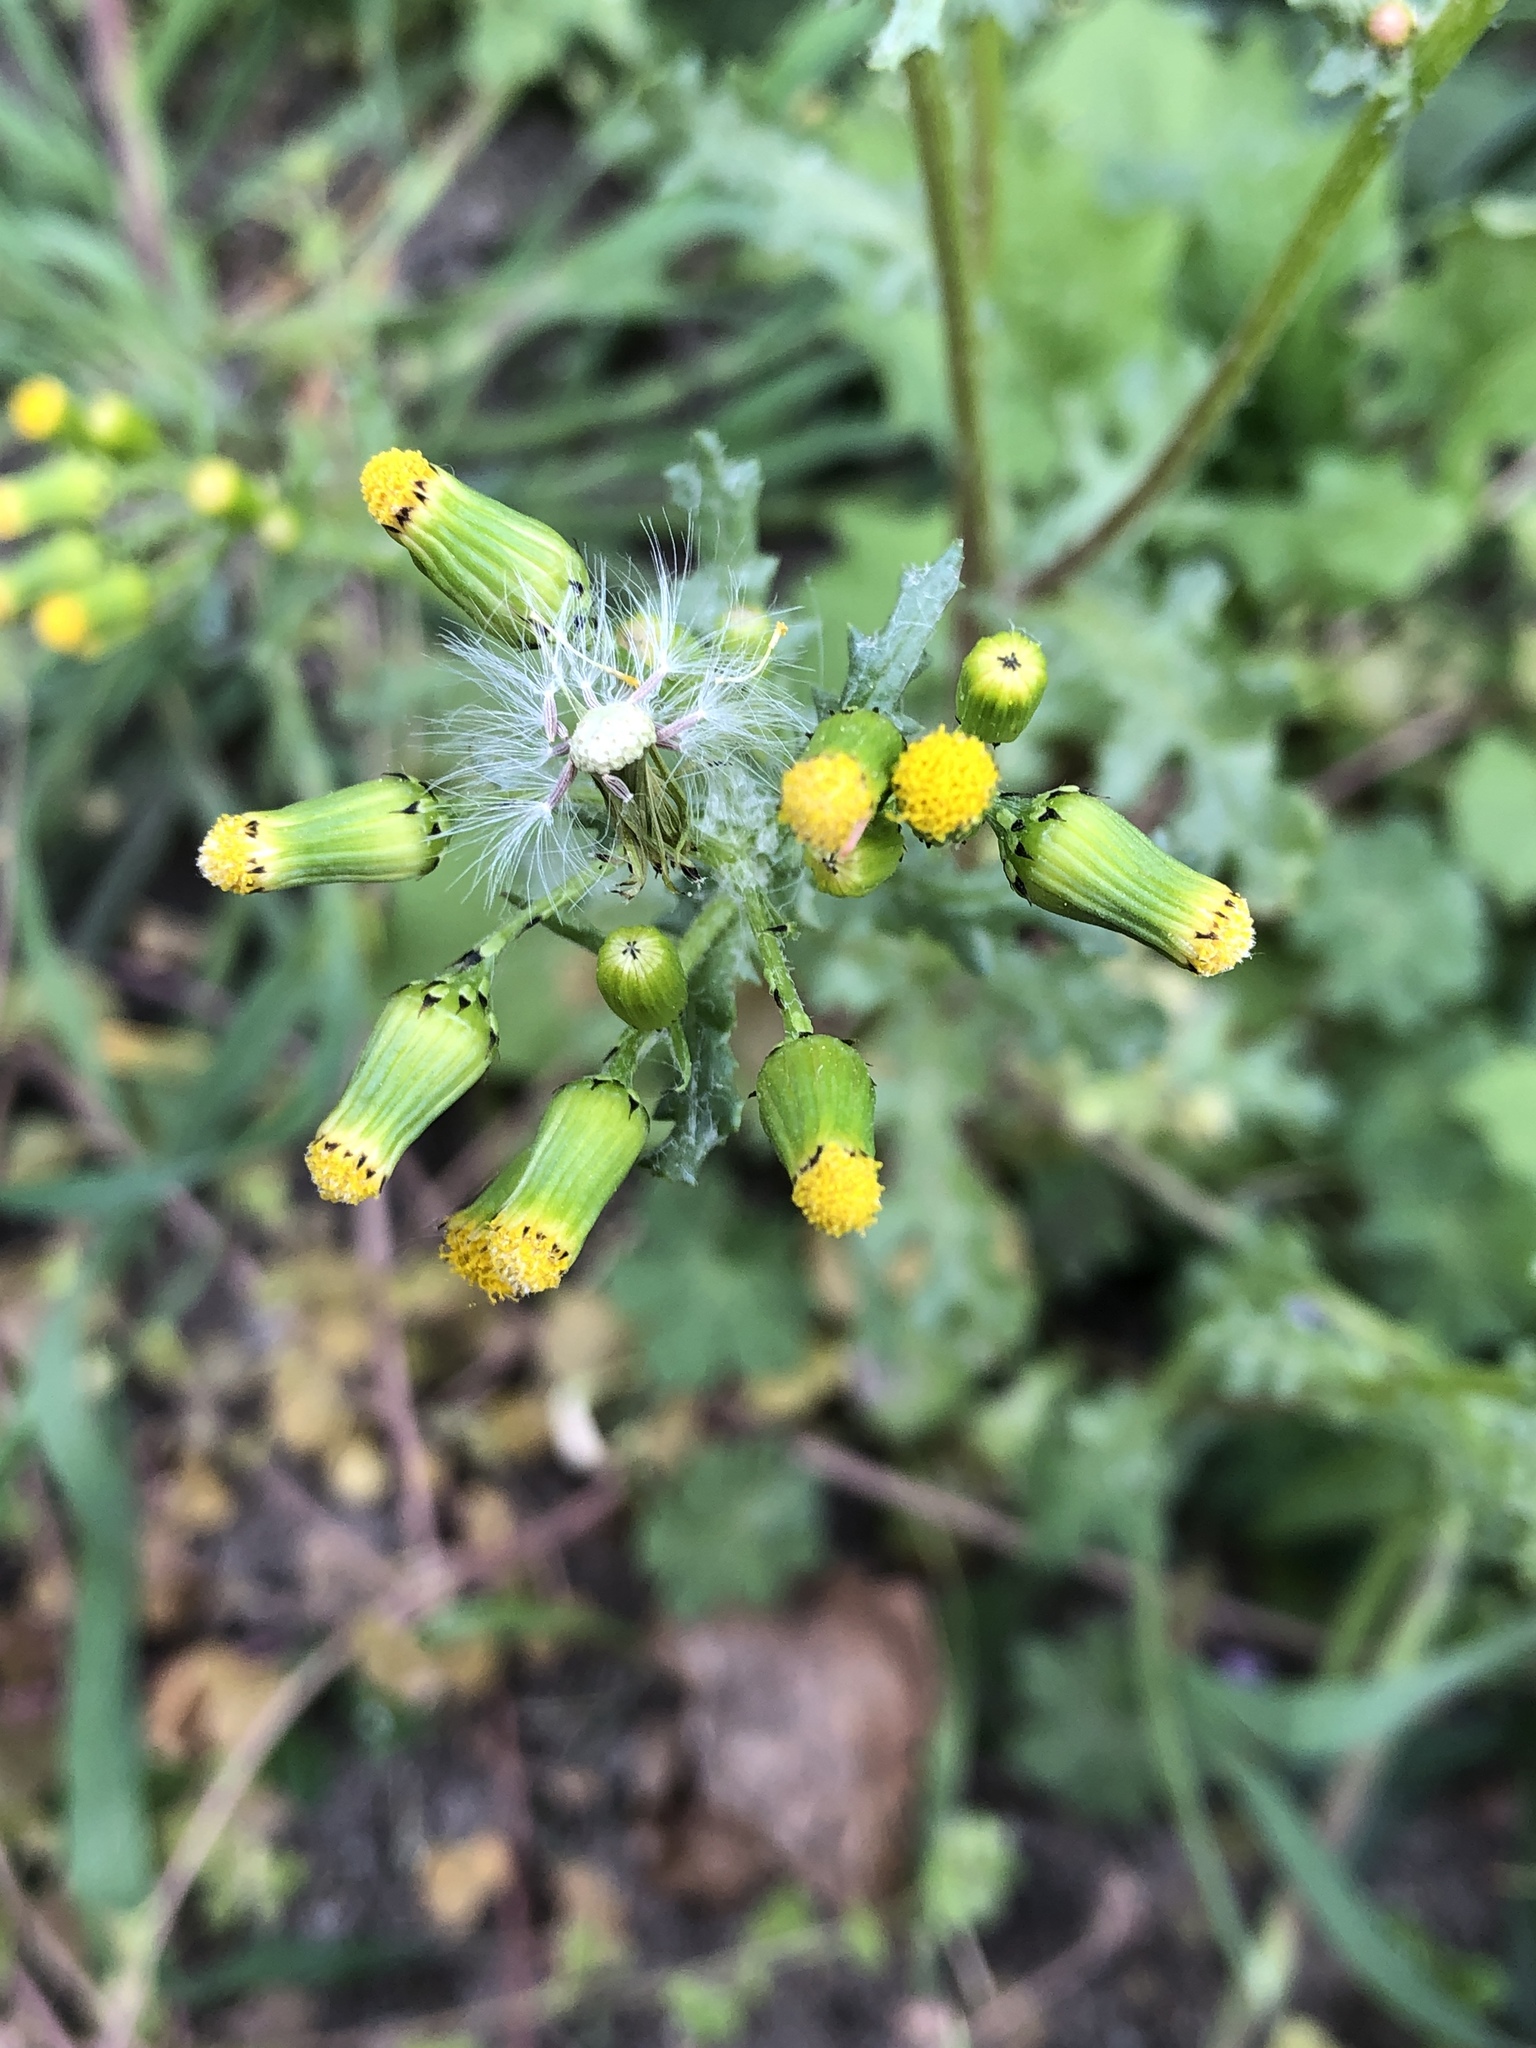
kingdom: Plantae
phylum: Tracheophyta
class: Magnoliopsida
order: Asterales
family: Asteraceae
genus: Senecio
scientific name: Senecio vulgaris
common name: Old-man-in-the-spring
